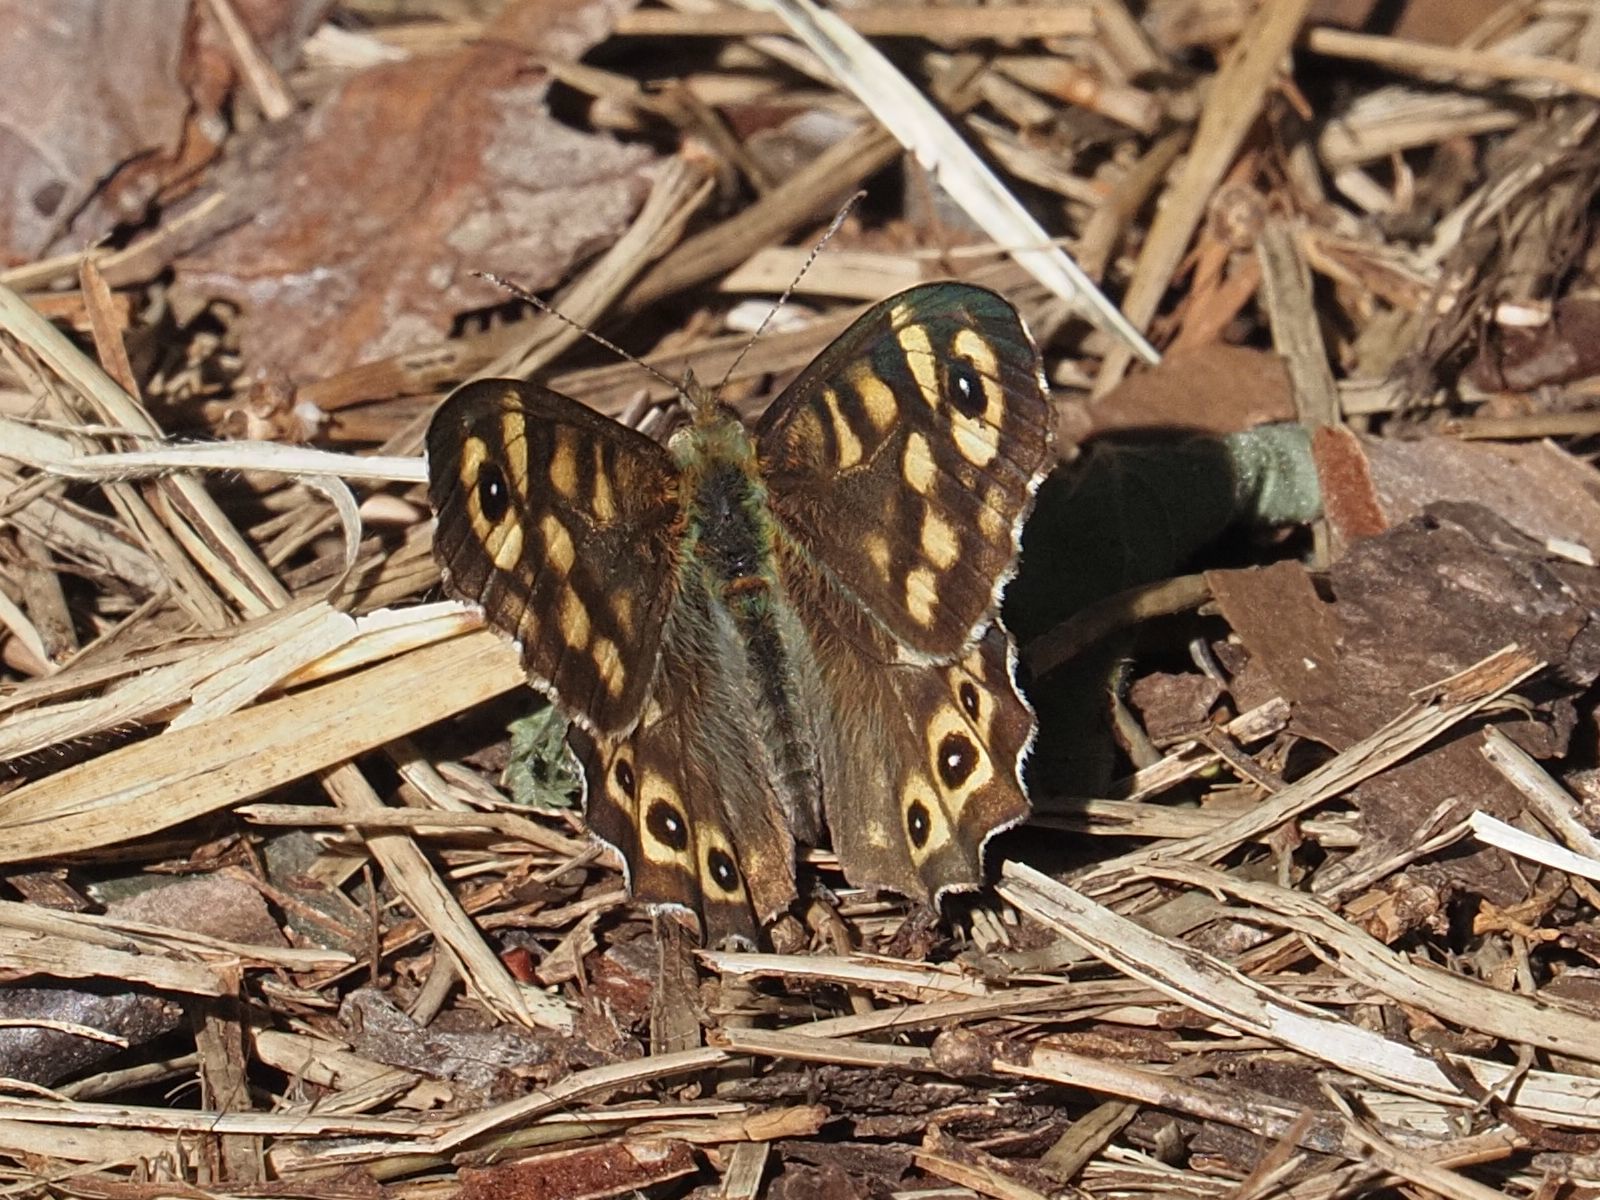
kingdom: Animalia
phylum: Arthropoda
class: Insecta
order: Lepidoptera
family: Nymphalidae
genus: Pararge
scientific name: Pararge aegeria
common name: Speckled wood
